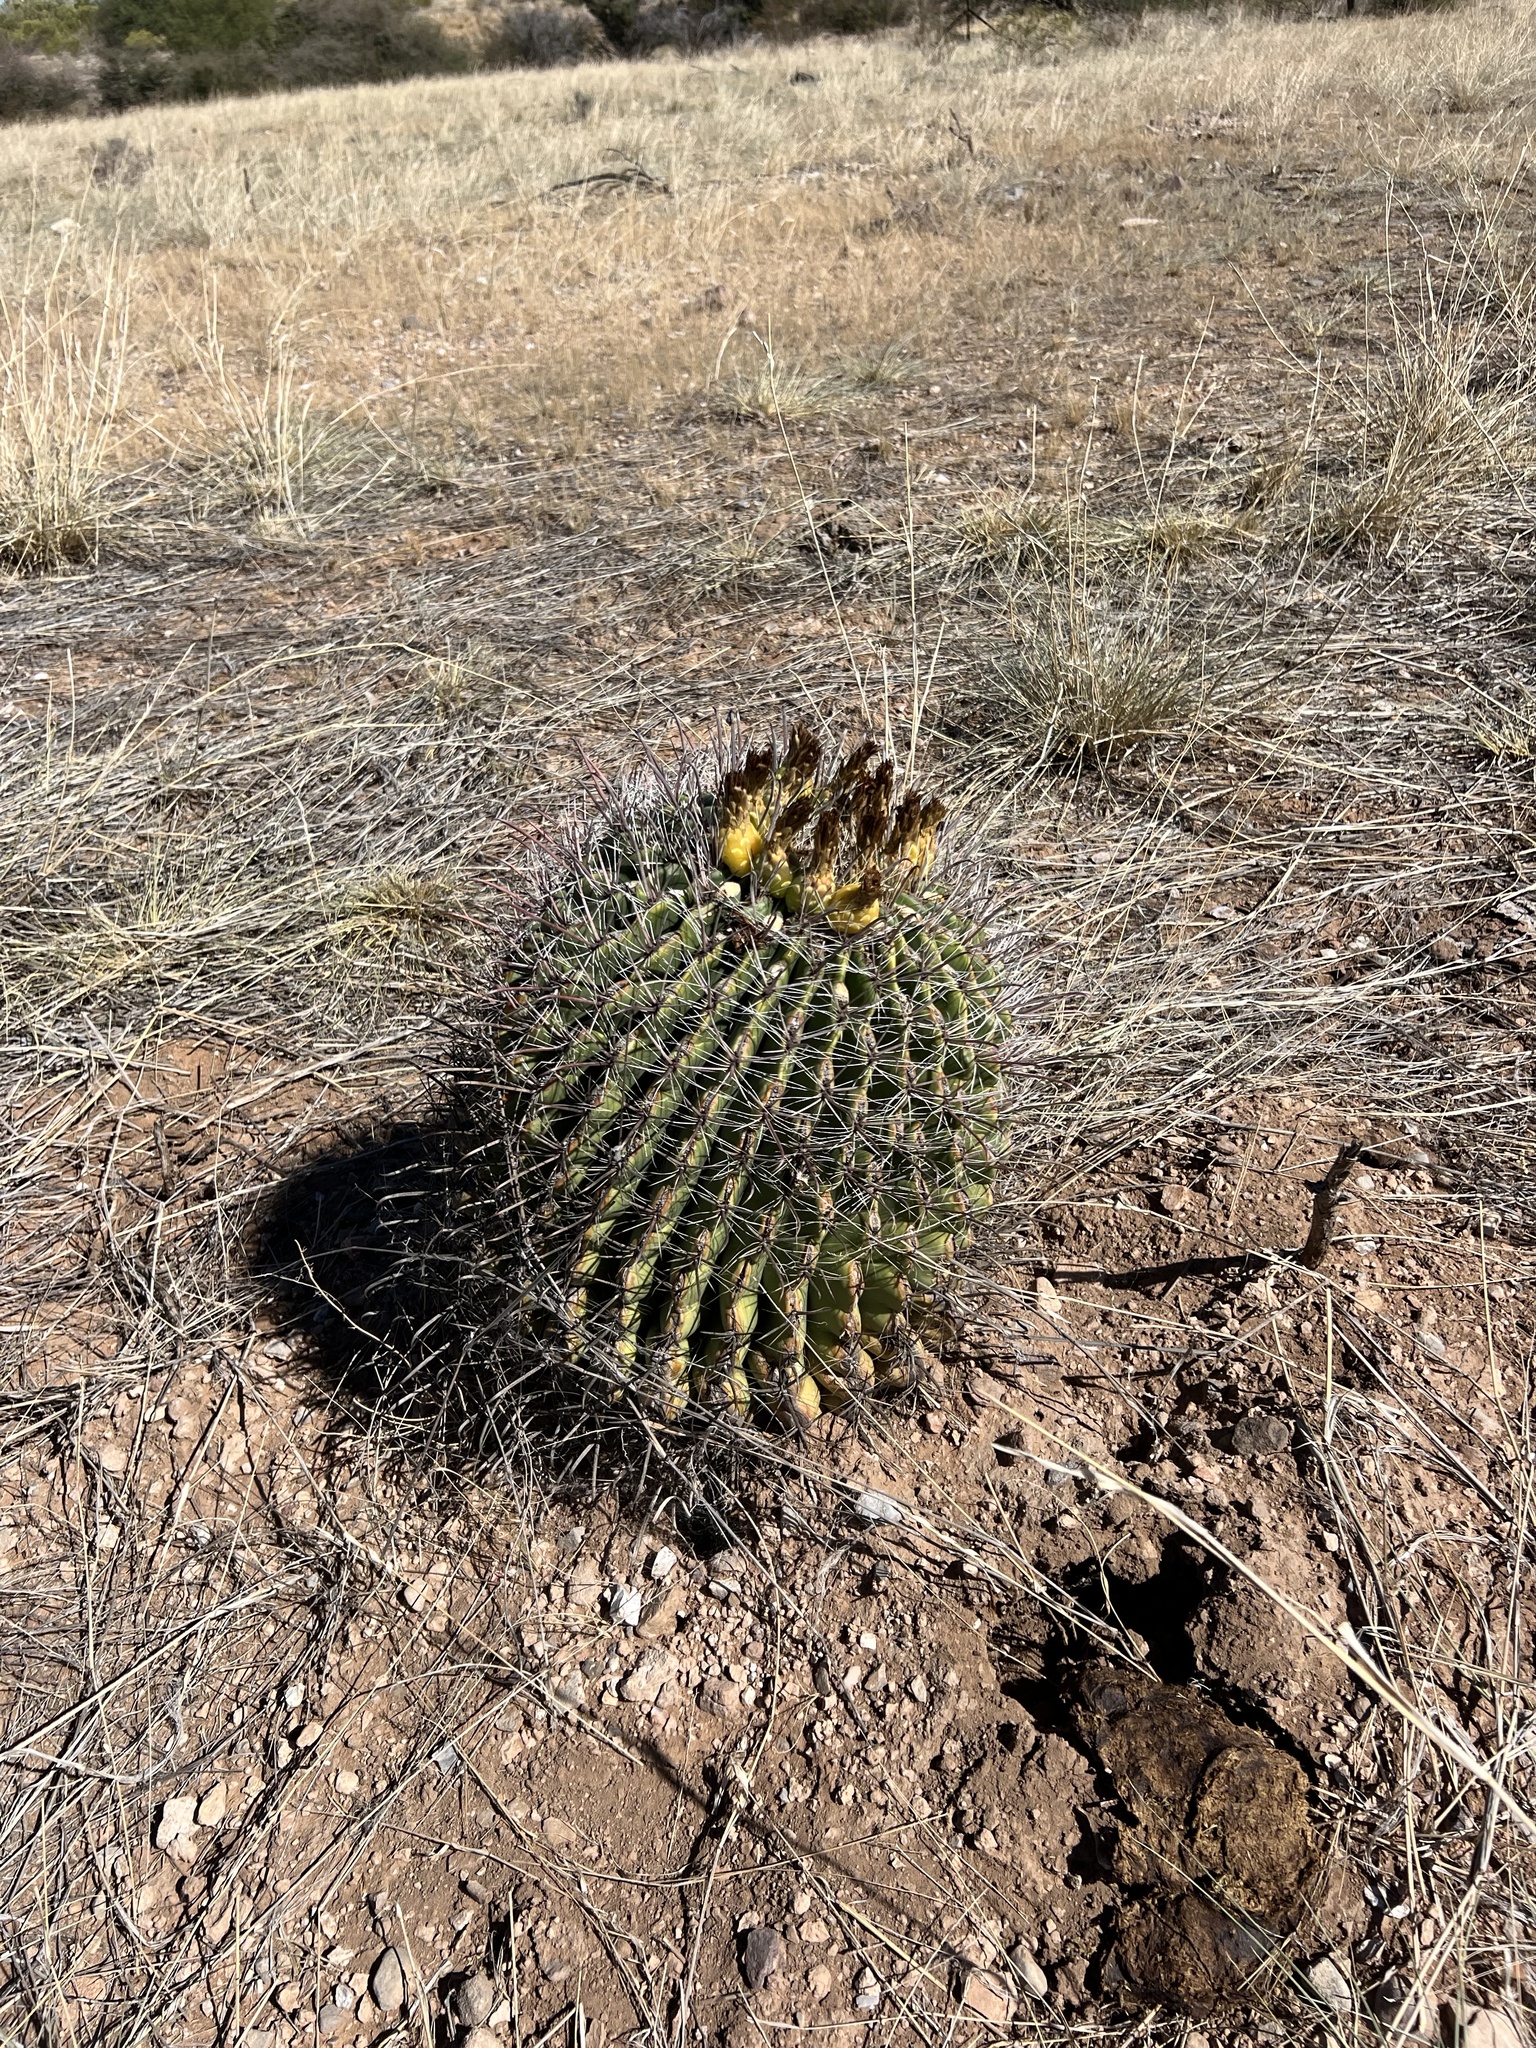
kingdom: Plantae
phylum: Tracheophyta
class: Magnoliopsida
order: Caryophyllales
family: Cactaceae
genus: Ferocactus
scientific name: Ferocactus wislizeni
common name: Candy barrel cactus
